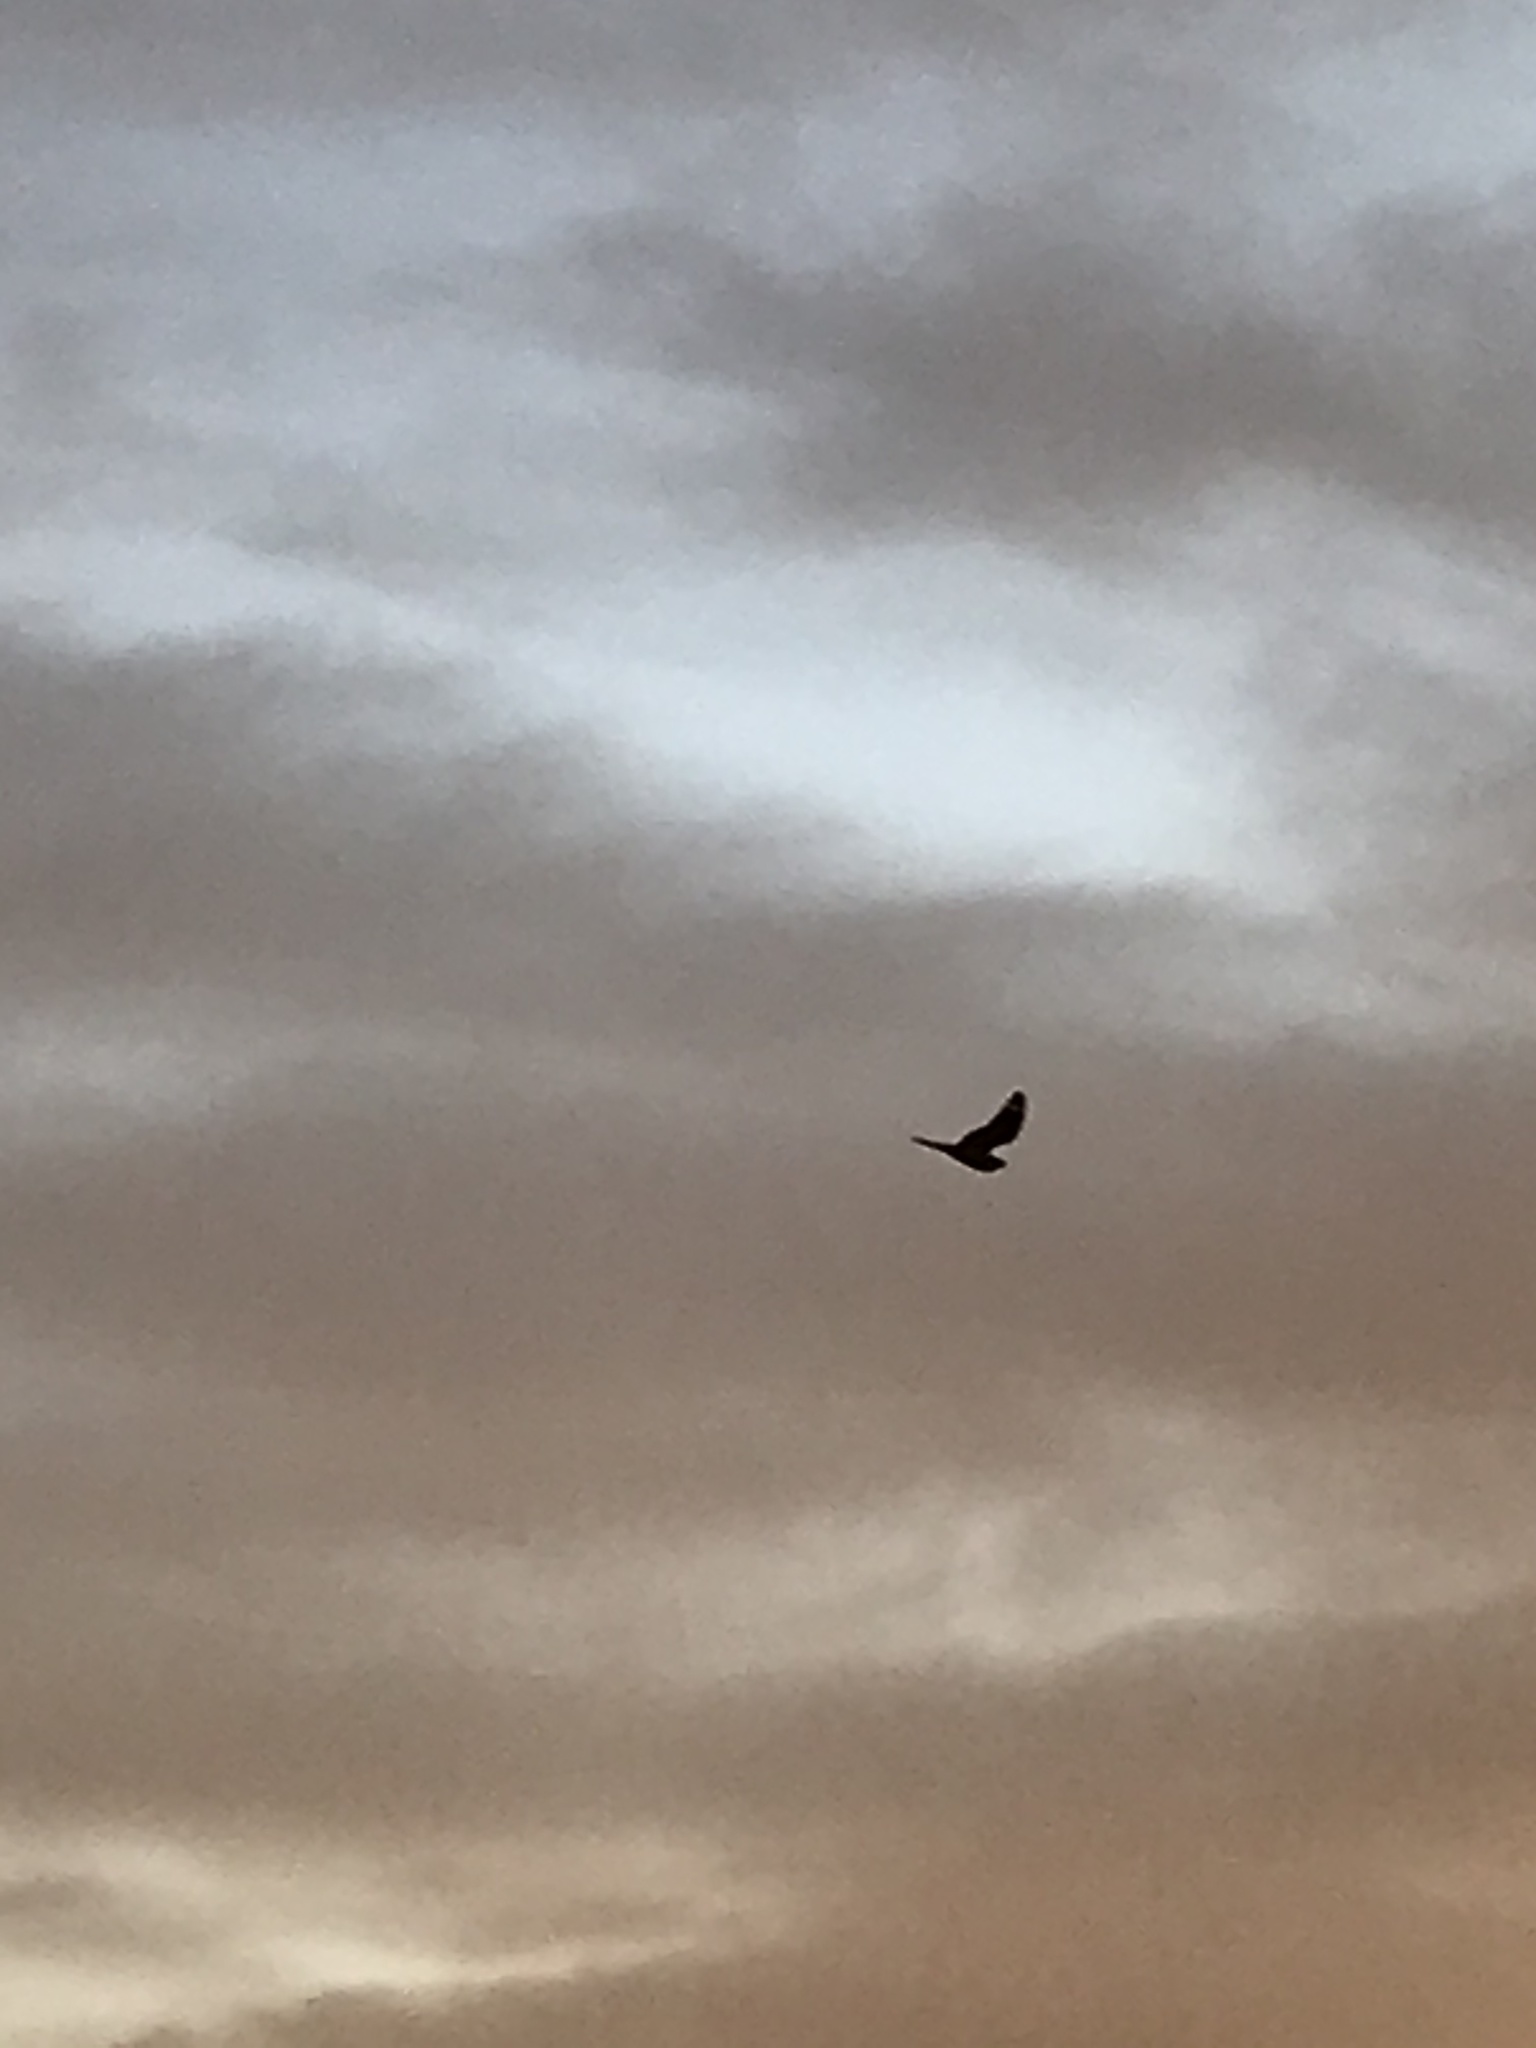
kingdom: Animalia
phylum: Chordata
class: Aves
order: Caprimulgiformes
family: Caprimulgidae
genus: Chordeiles
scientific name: Chordeiles acutipennis
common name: Lesser nighthawk
